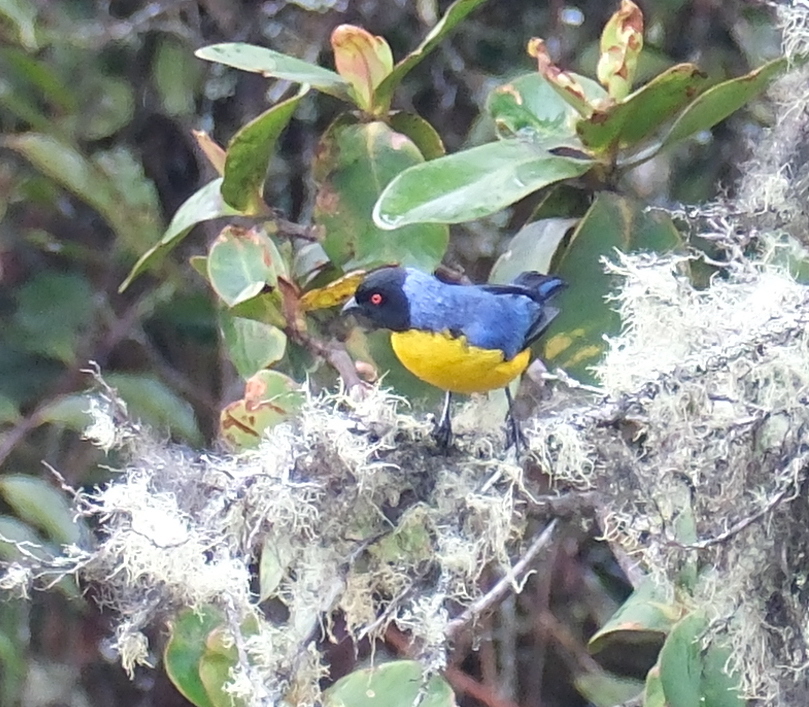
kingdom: Animalia
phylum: Chordata
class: Aves
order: Passeriformes
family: Thraupidae
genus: Buthraupis
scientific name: Buthraupis montana
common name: Hooded mountain tanager
